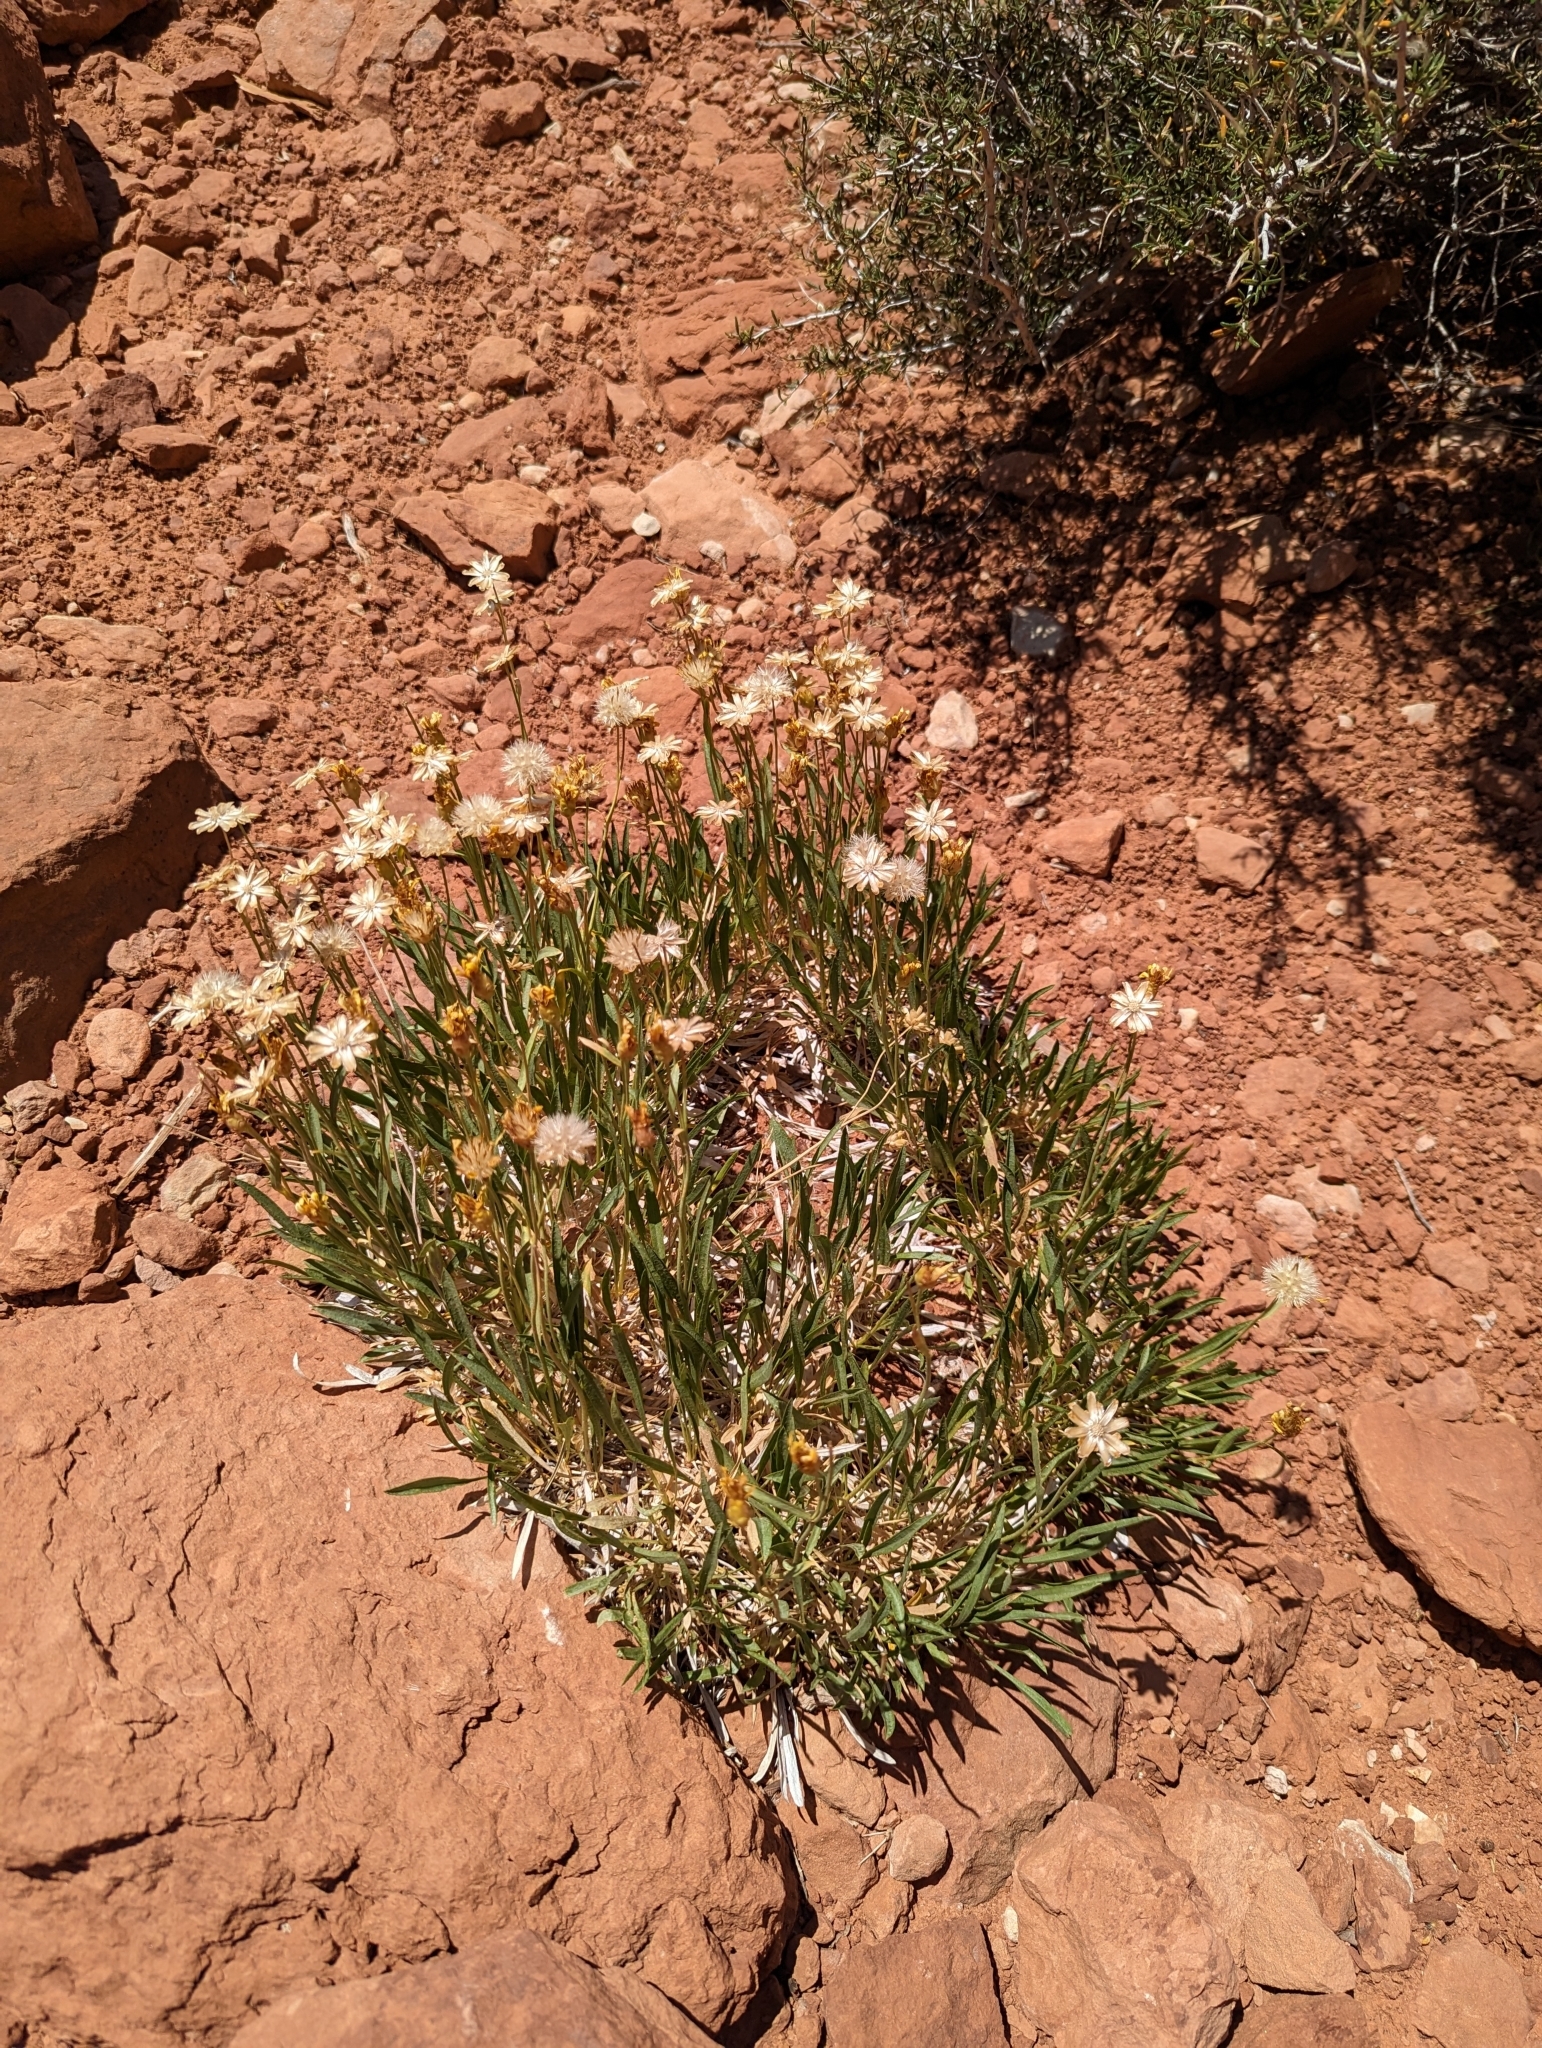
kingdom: Plantae
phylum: Tracheophyta
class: Magnoliopsida
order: Asterales
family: Asteraceae
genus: Chaetopappa
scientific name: Chaetopappa ericoides
